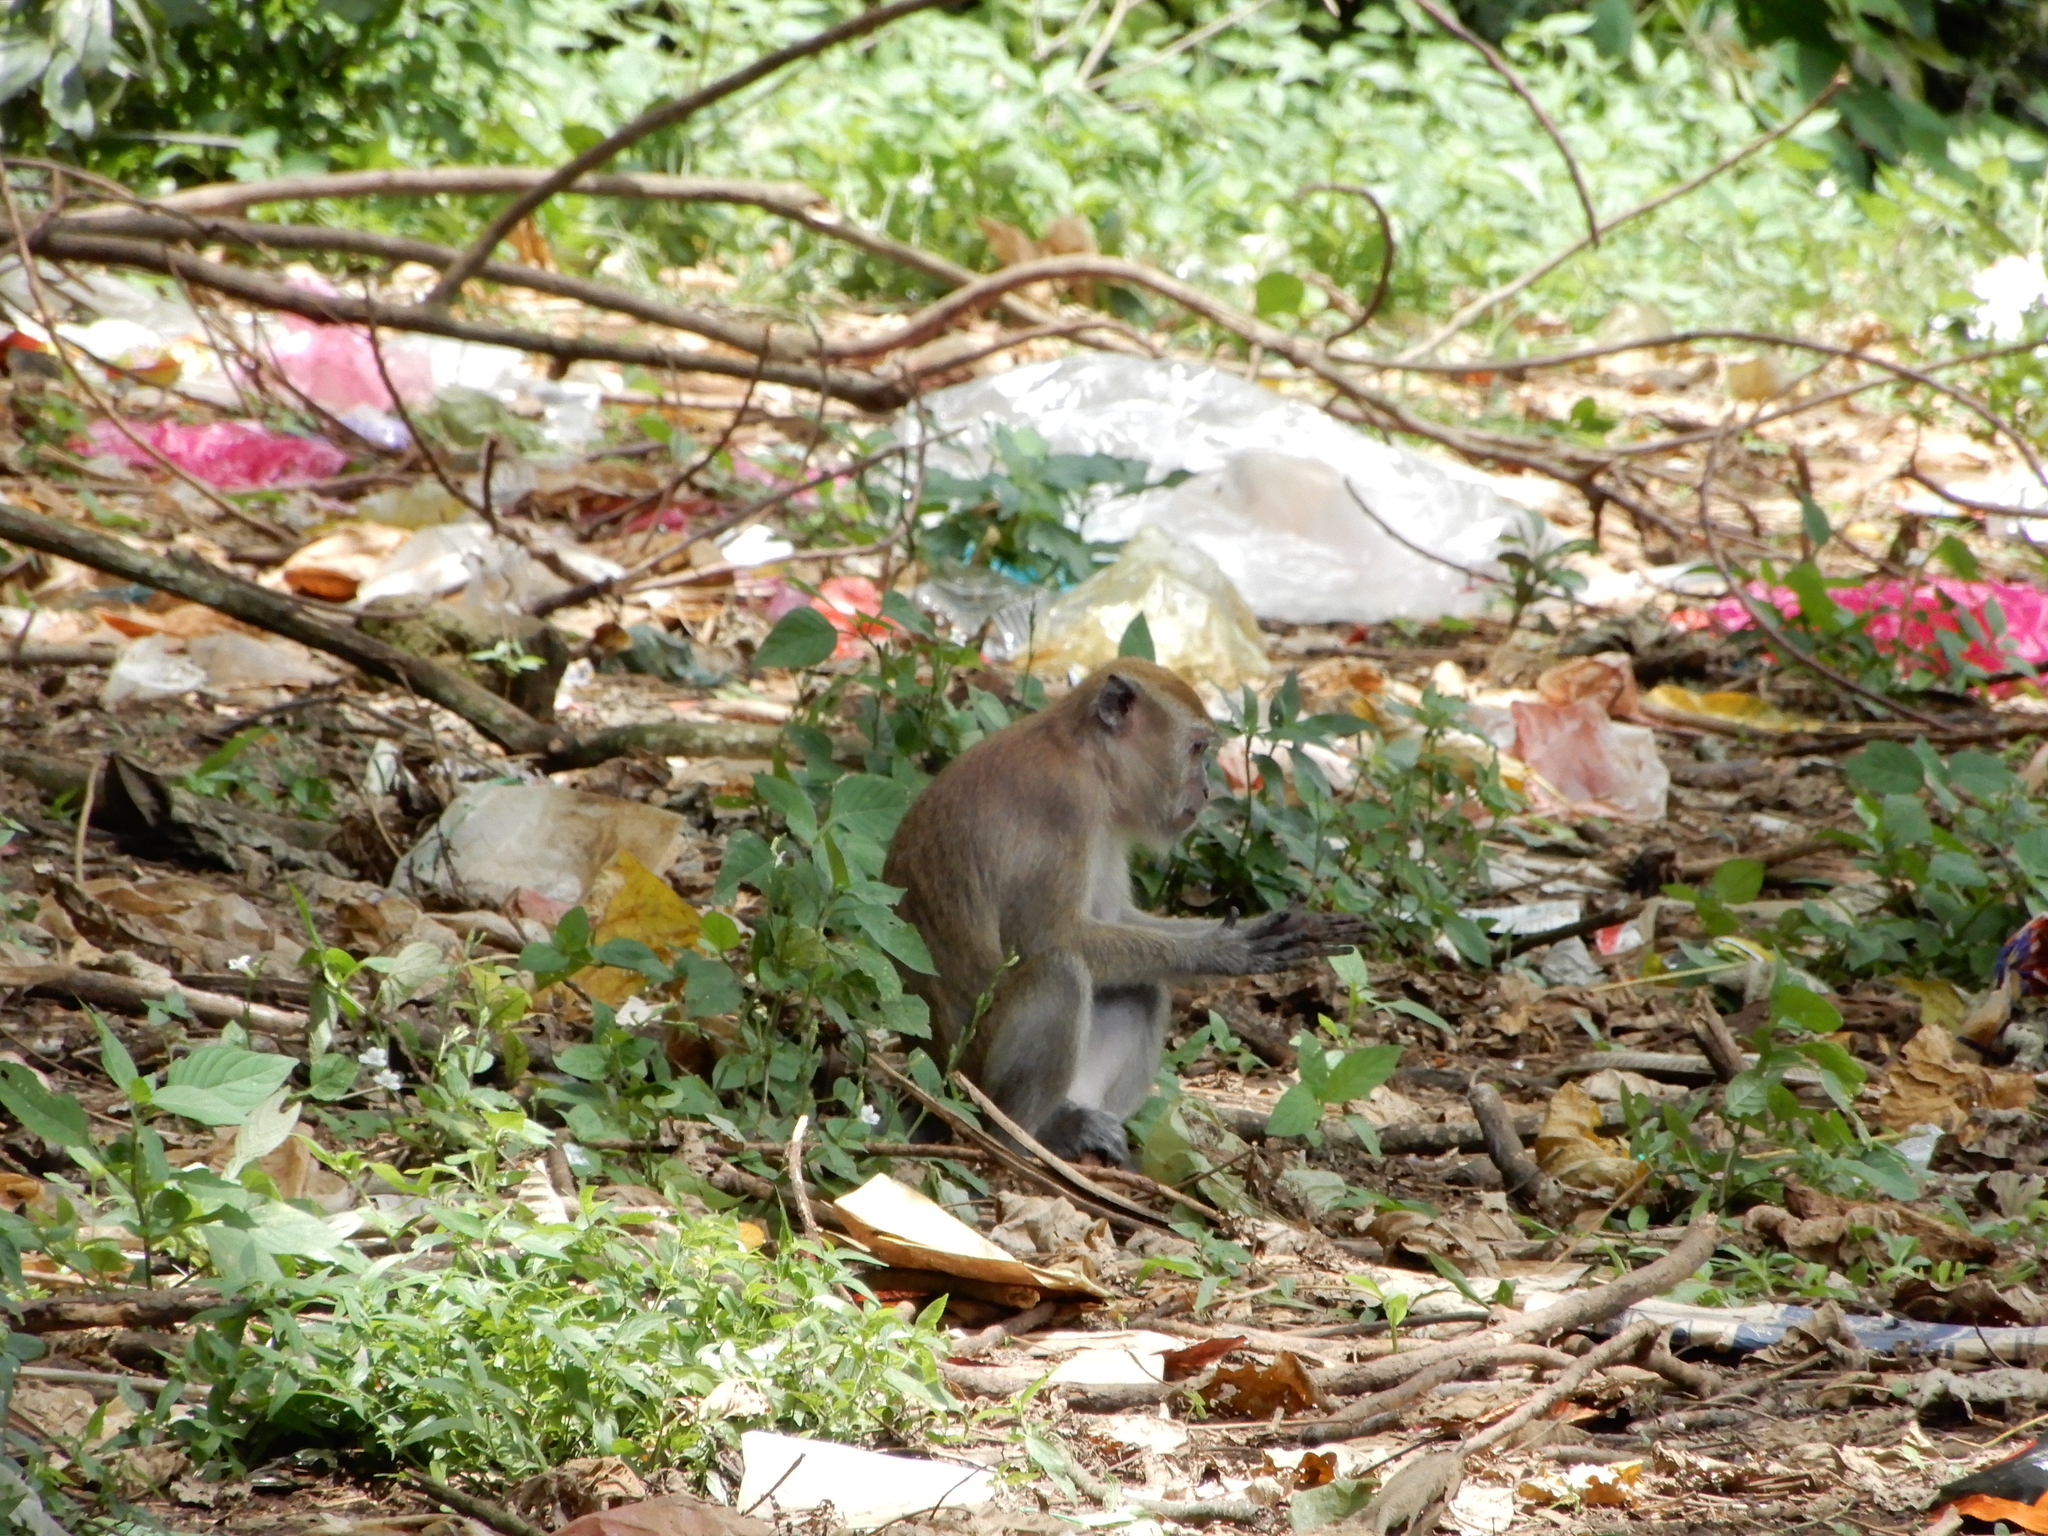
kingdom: Animalia
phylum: Chordata
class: Mammalia
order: Primates
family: Cercopithecidae
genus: Macaca
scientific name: Macaca fascicularis
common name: Crab-eating macaque
